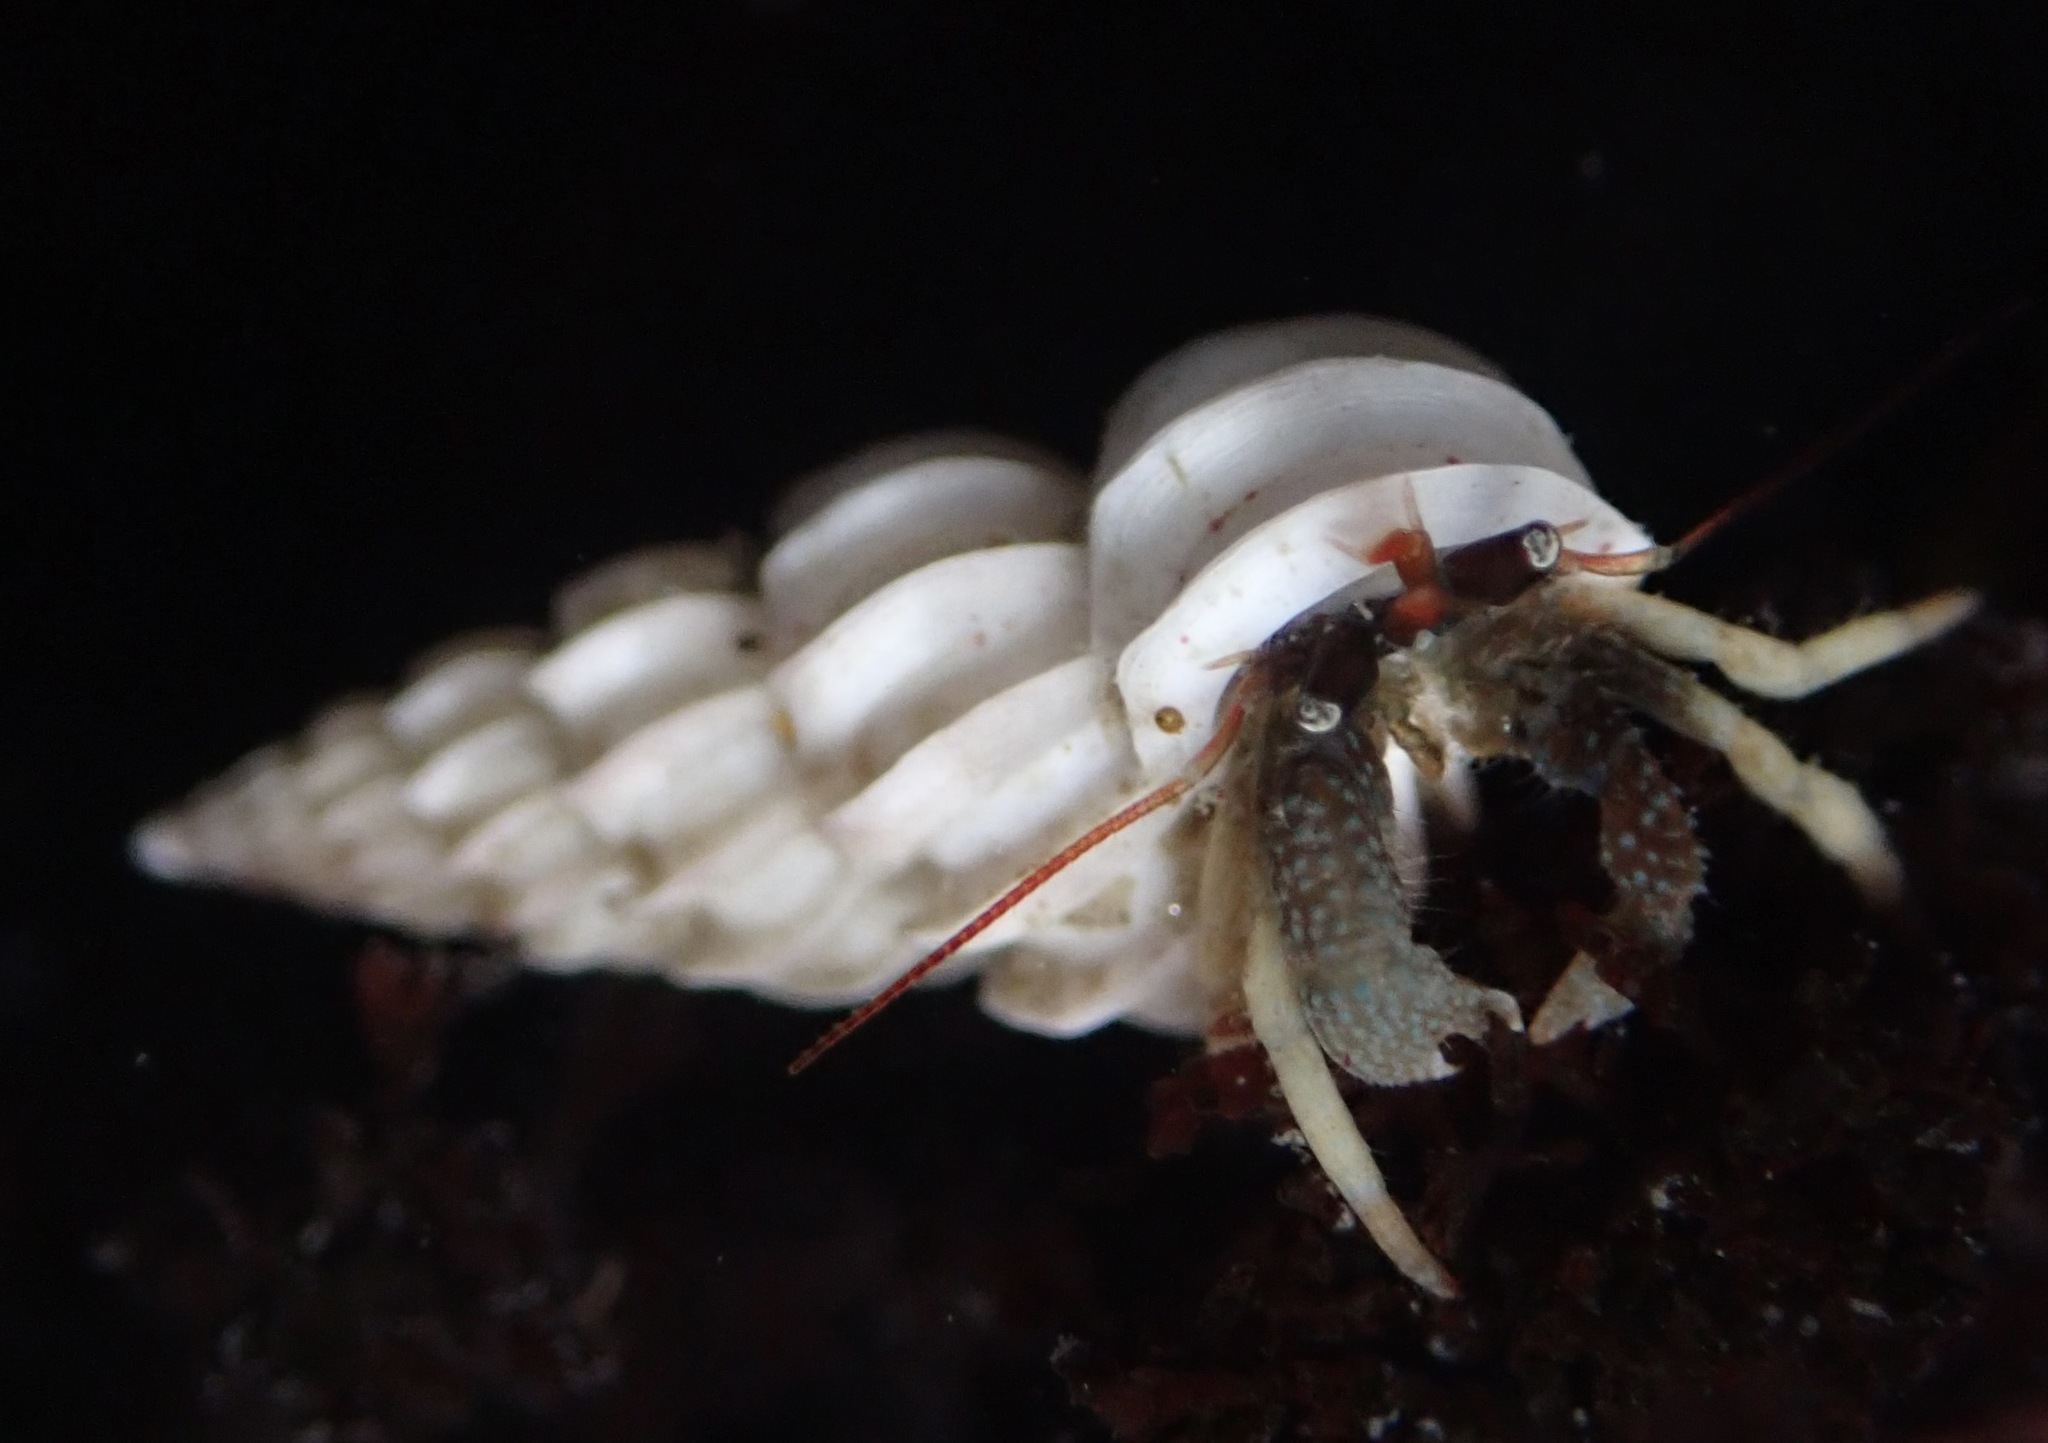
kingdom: Animalia
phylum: Arthropoda
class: Malacostraca
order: Decapoda
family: Paguridae
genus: Pagurus
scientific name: Pagurus granosimanus
